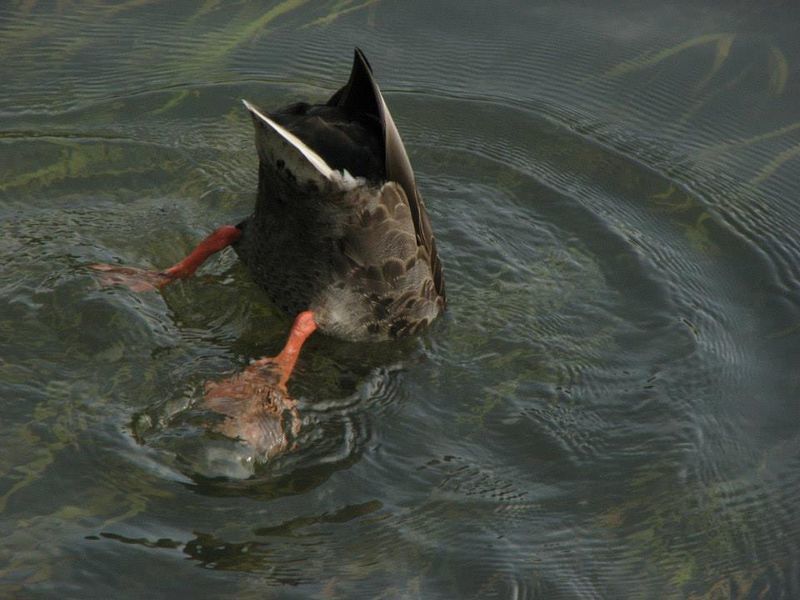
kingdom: Animalia
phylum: Chordata
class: Aves
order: Anseriformes
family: Anatidae
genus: Anas
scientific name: Anas platyrhynchos
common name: Mallard
